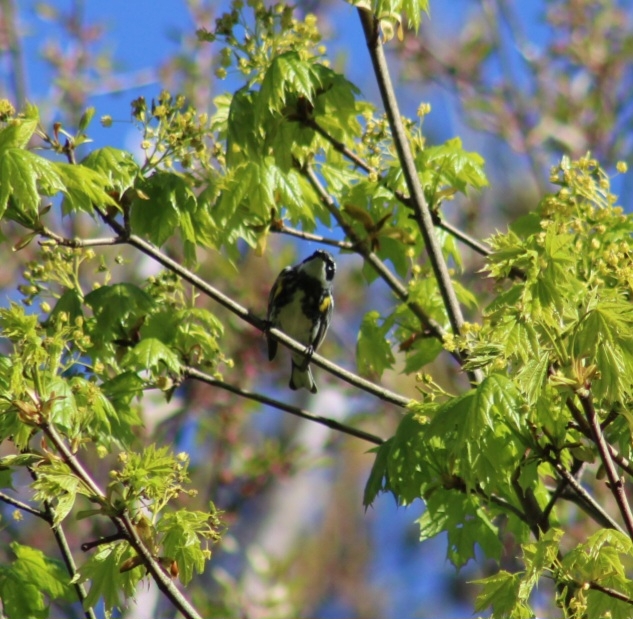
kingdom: Animalia
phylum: Chordata
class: Aves
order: Passeriformes
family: Parulidae
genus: Setophaga
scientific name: Setophaga coronata
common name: Myrtle warbler
